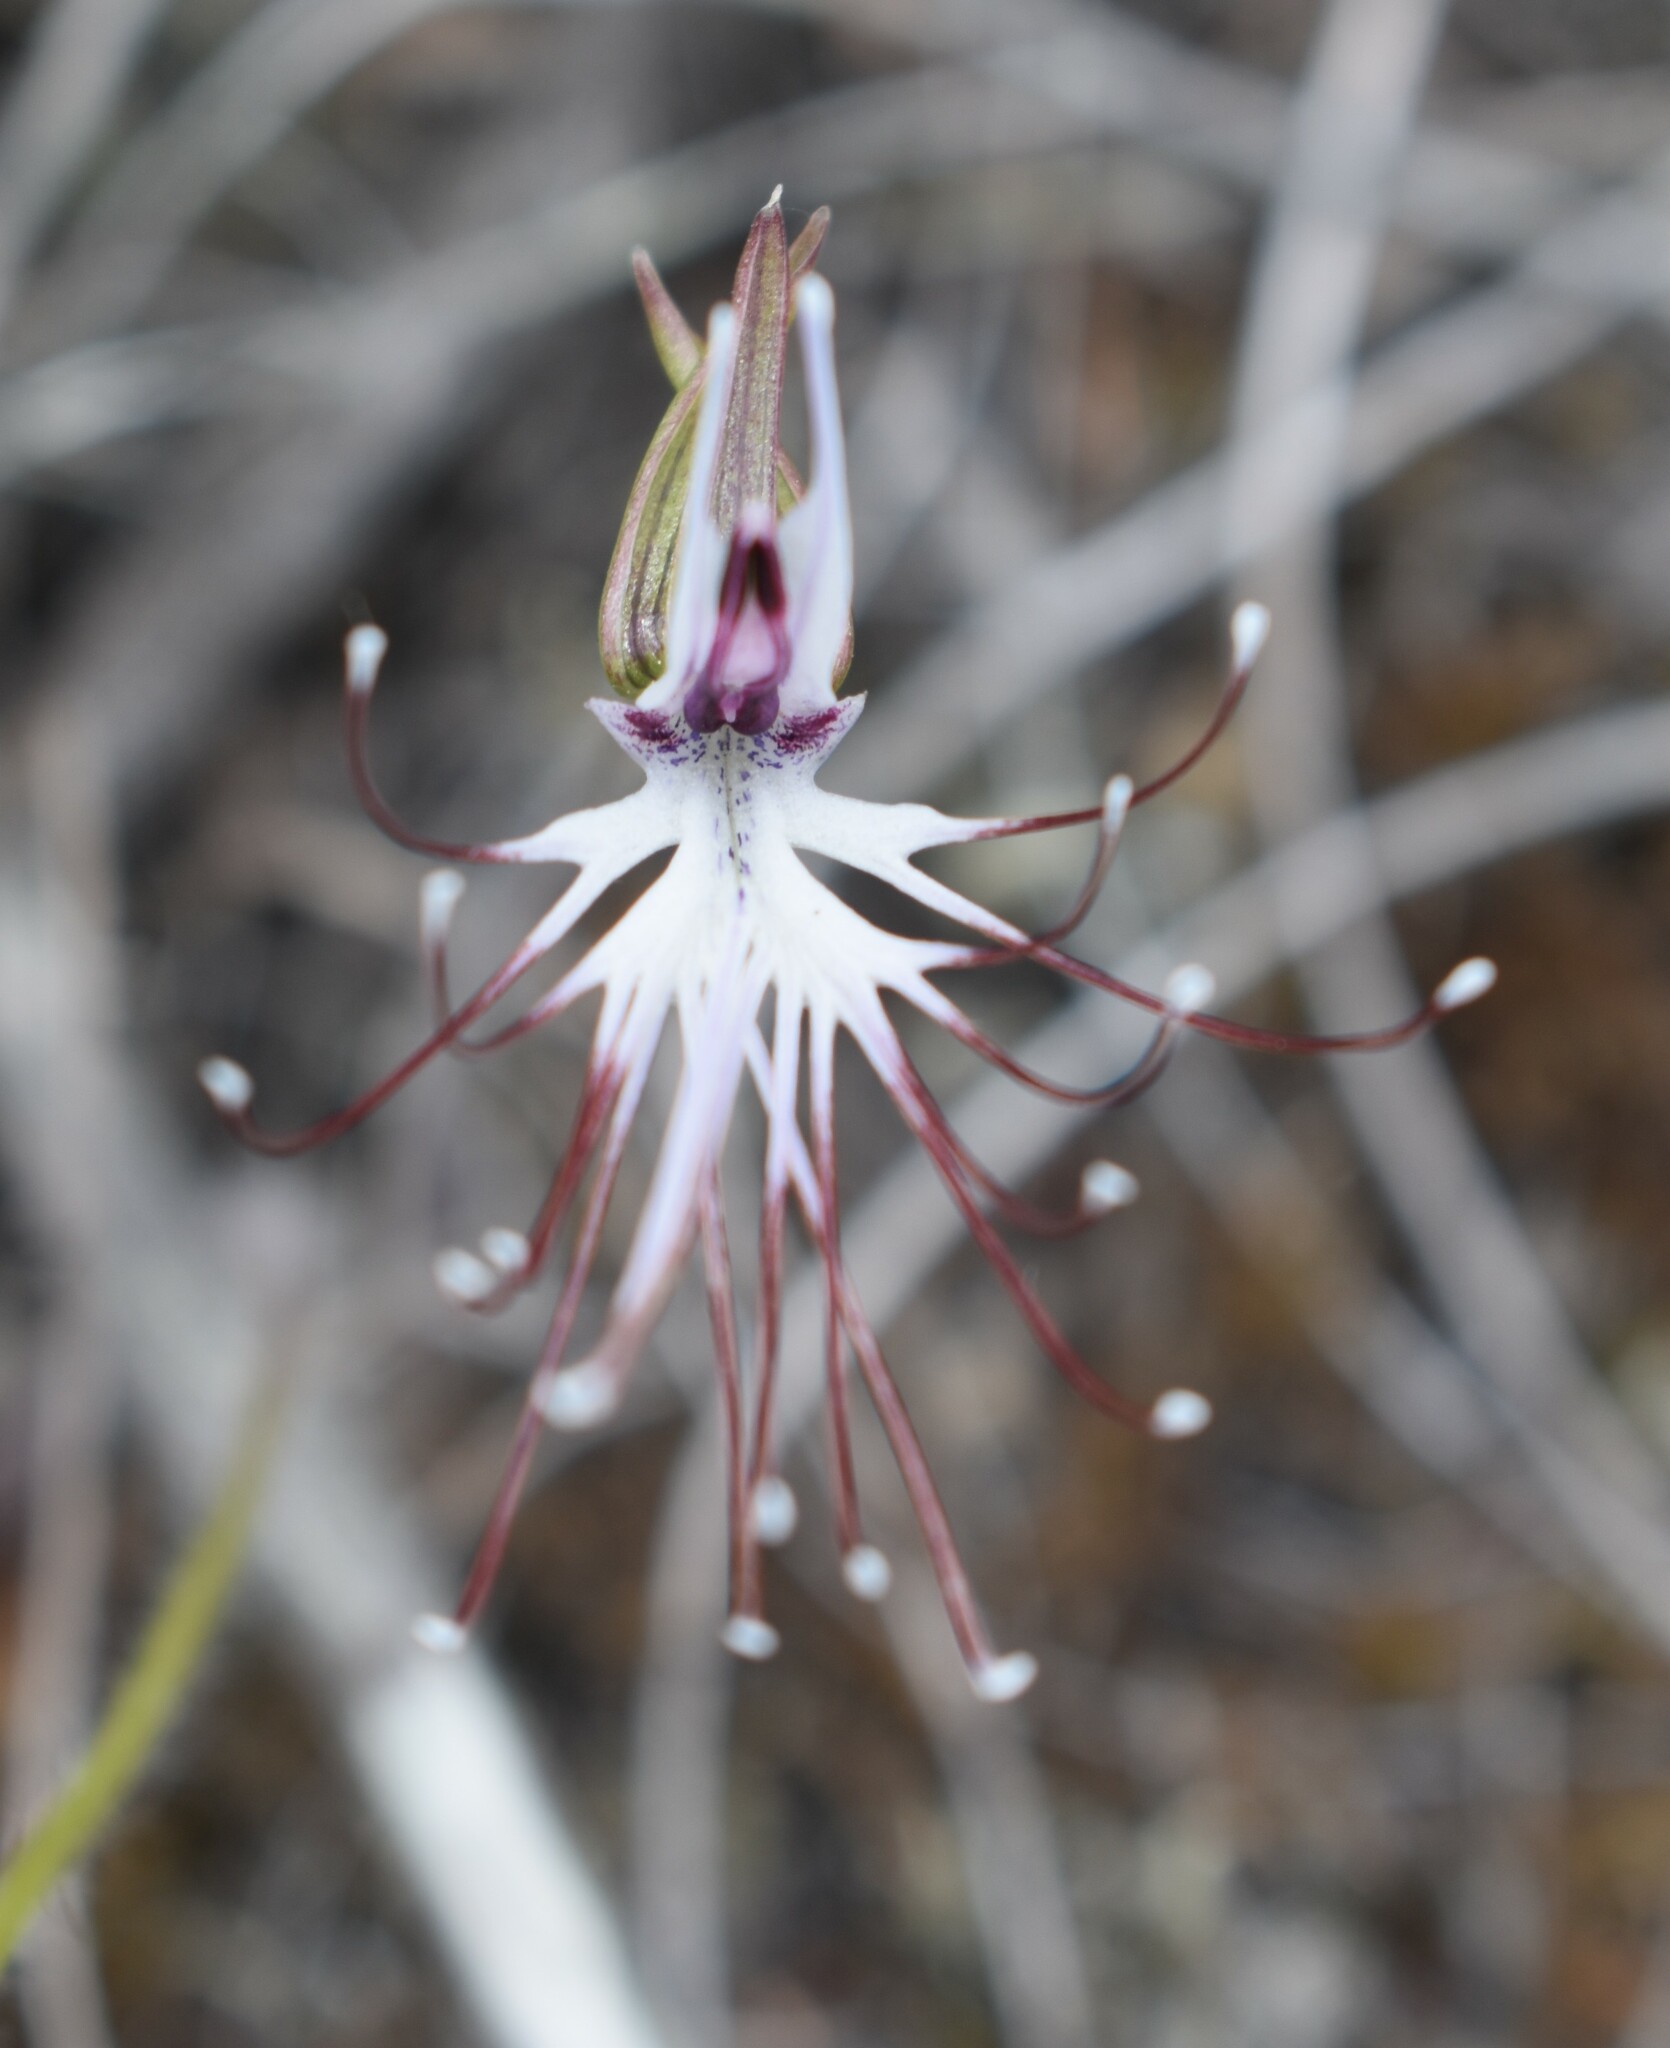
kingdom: Plantae
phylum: Tracheophyta
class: Liliopsida
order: Asparagales
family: Orchidaceae
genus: Holothrix
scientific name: Holothrix etheliae
